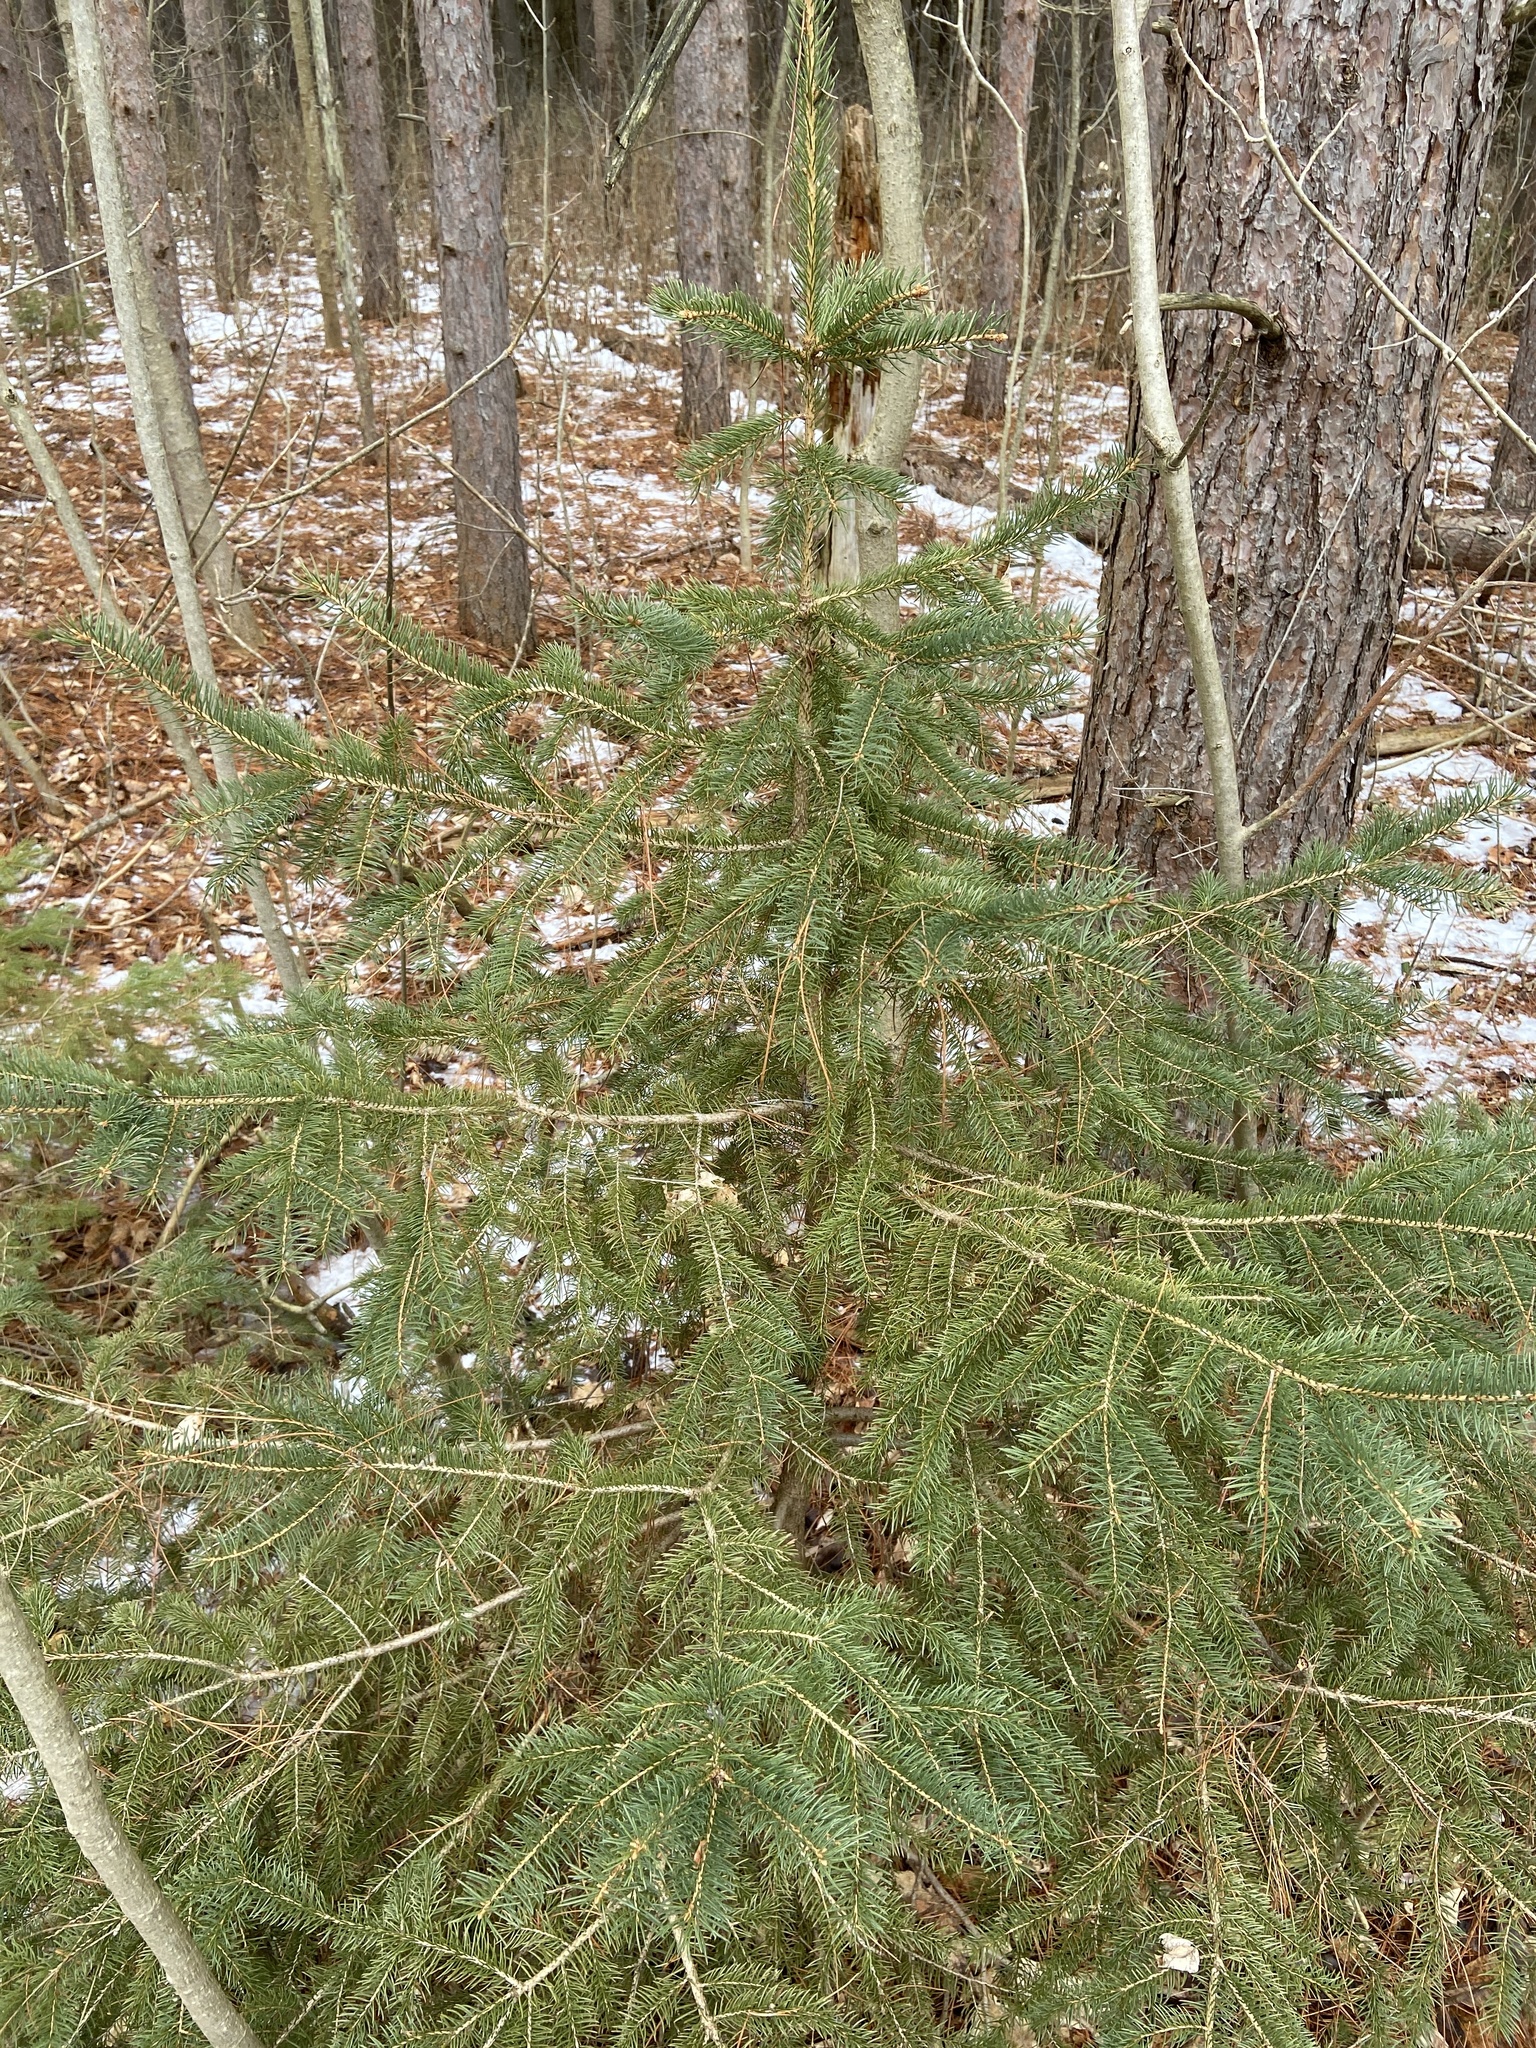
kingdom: Plantae
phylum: Tracheophyta
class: Pinopsida
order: Pinales
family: Pinaceae
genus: Picea
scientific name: Picea glauca
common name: White spruce
